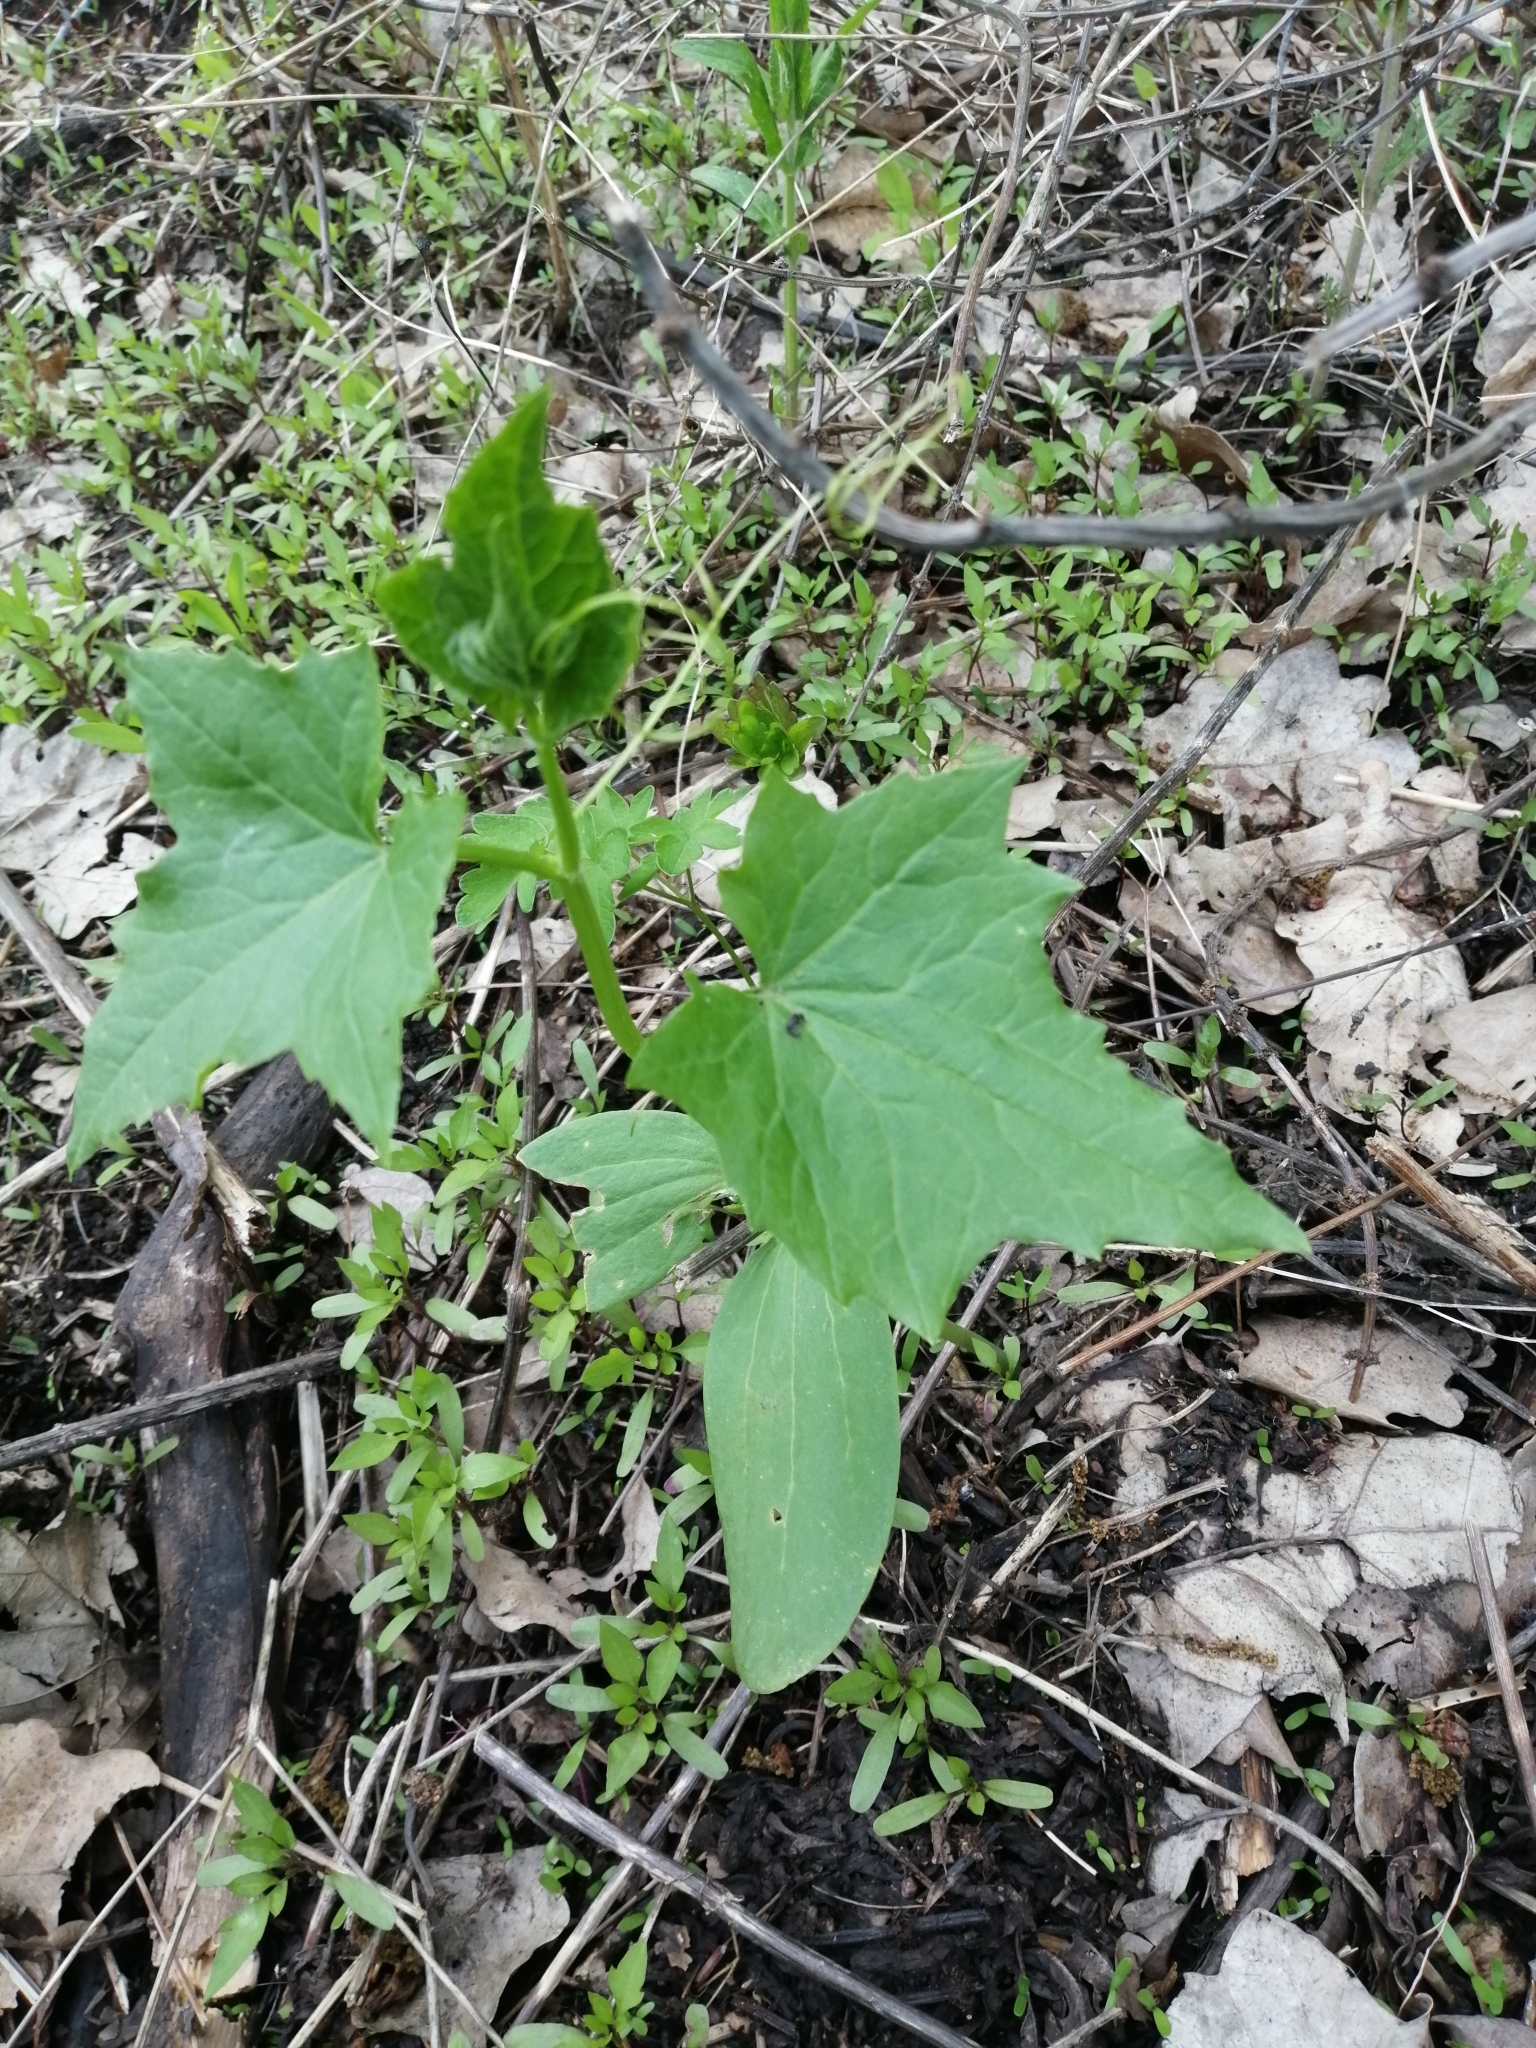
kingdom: Plantae
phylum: Tracheophyta
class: Magnoliopsida
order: Cucurbitales
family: Cucurbitaceae
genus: Echinocystis
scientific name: Echinocystis lobata
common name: Wild cucumber
